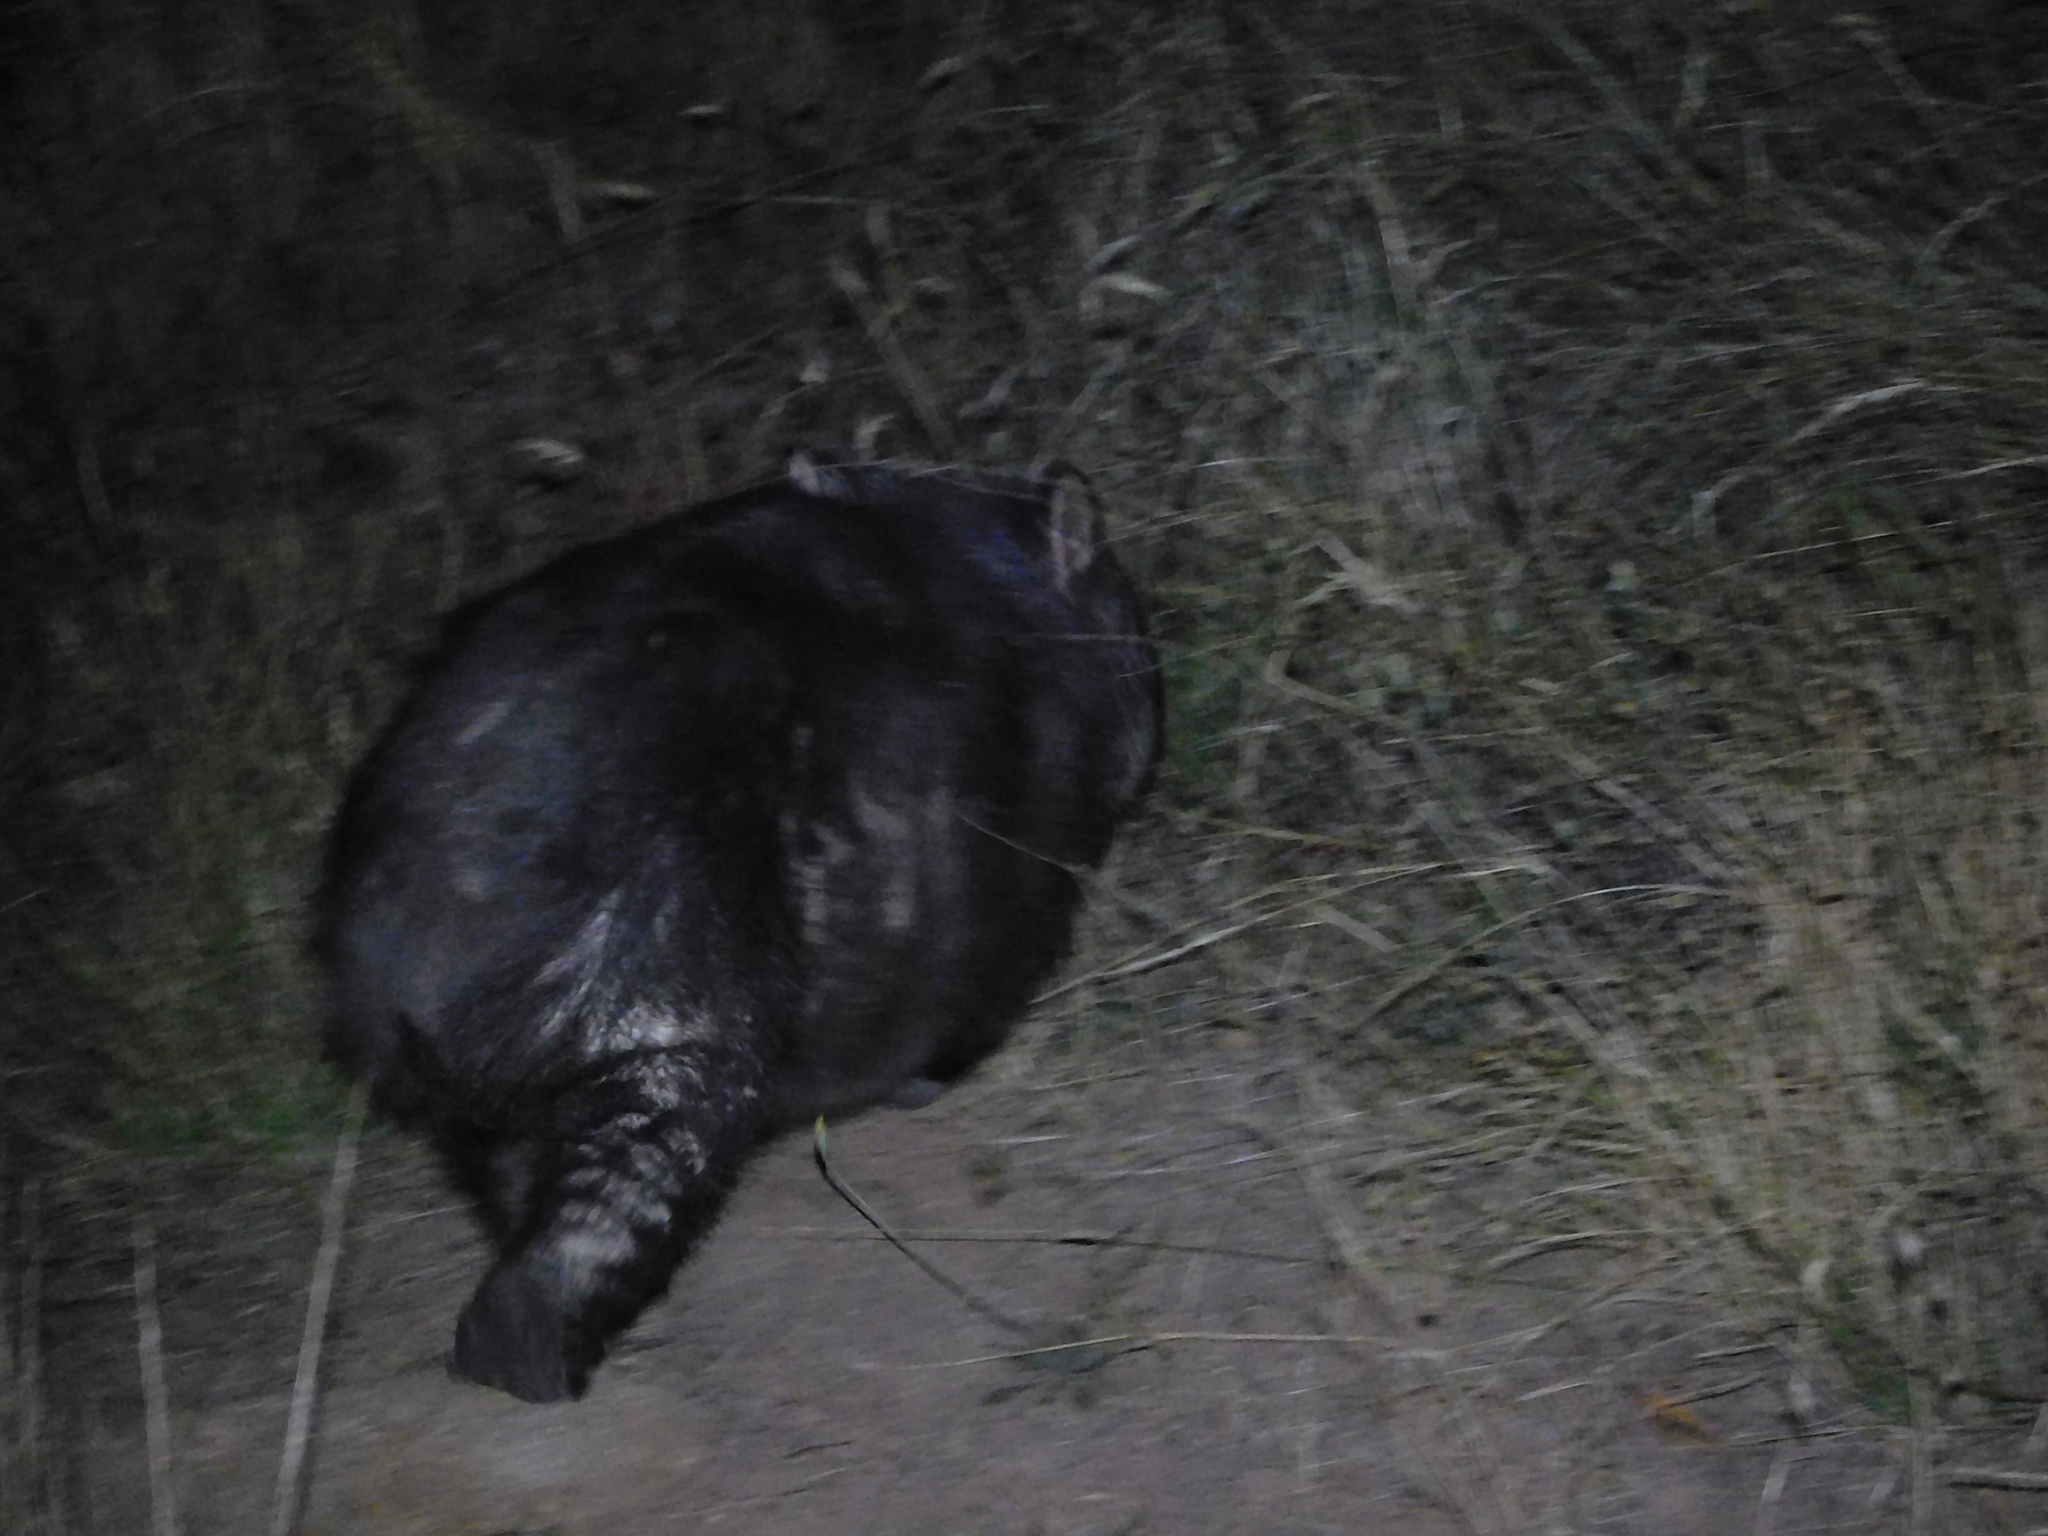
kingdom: Animalia
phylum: Chordata
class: Mammalia
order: Diprotodontia
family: Vombatidae
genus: Vombatus
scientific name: Vombatus ursinus
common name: Common wombat
